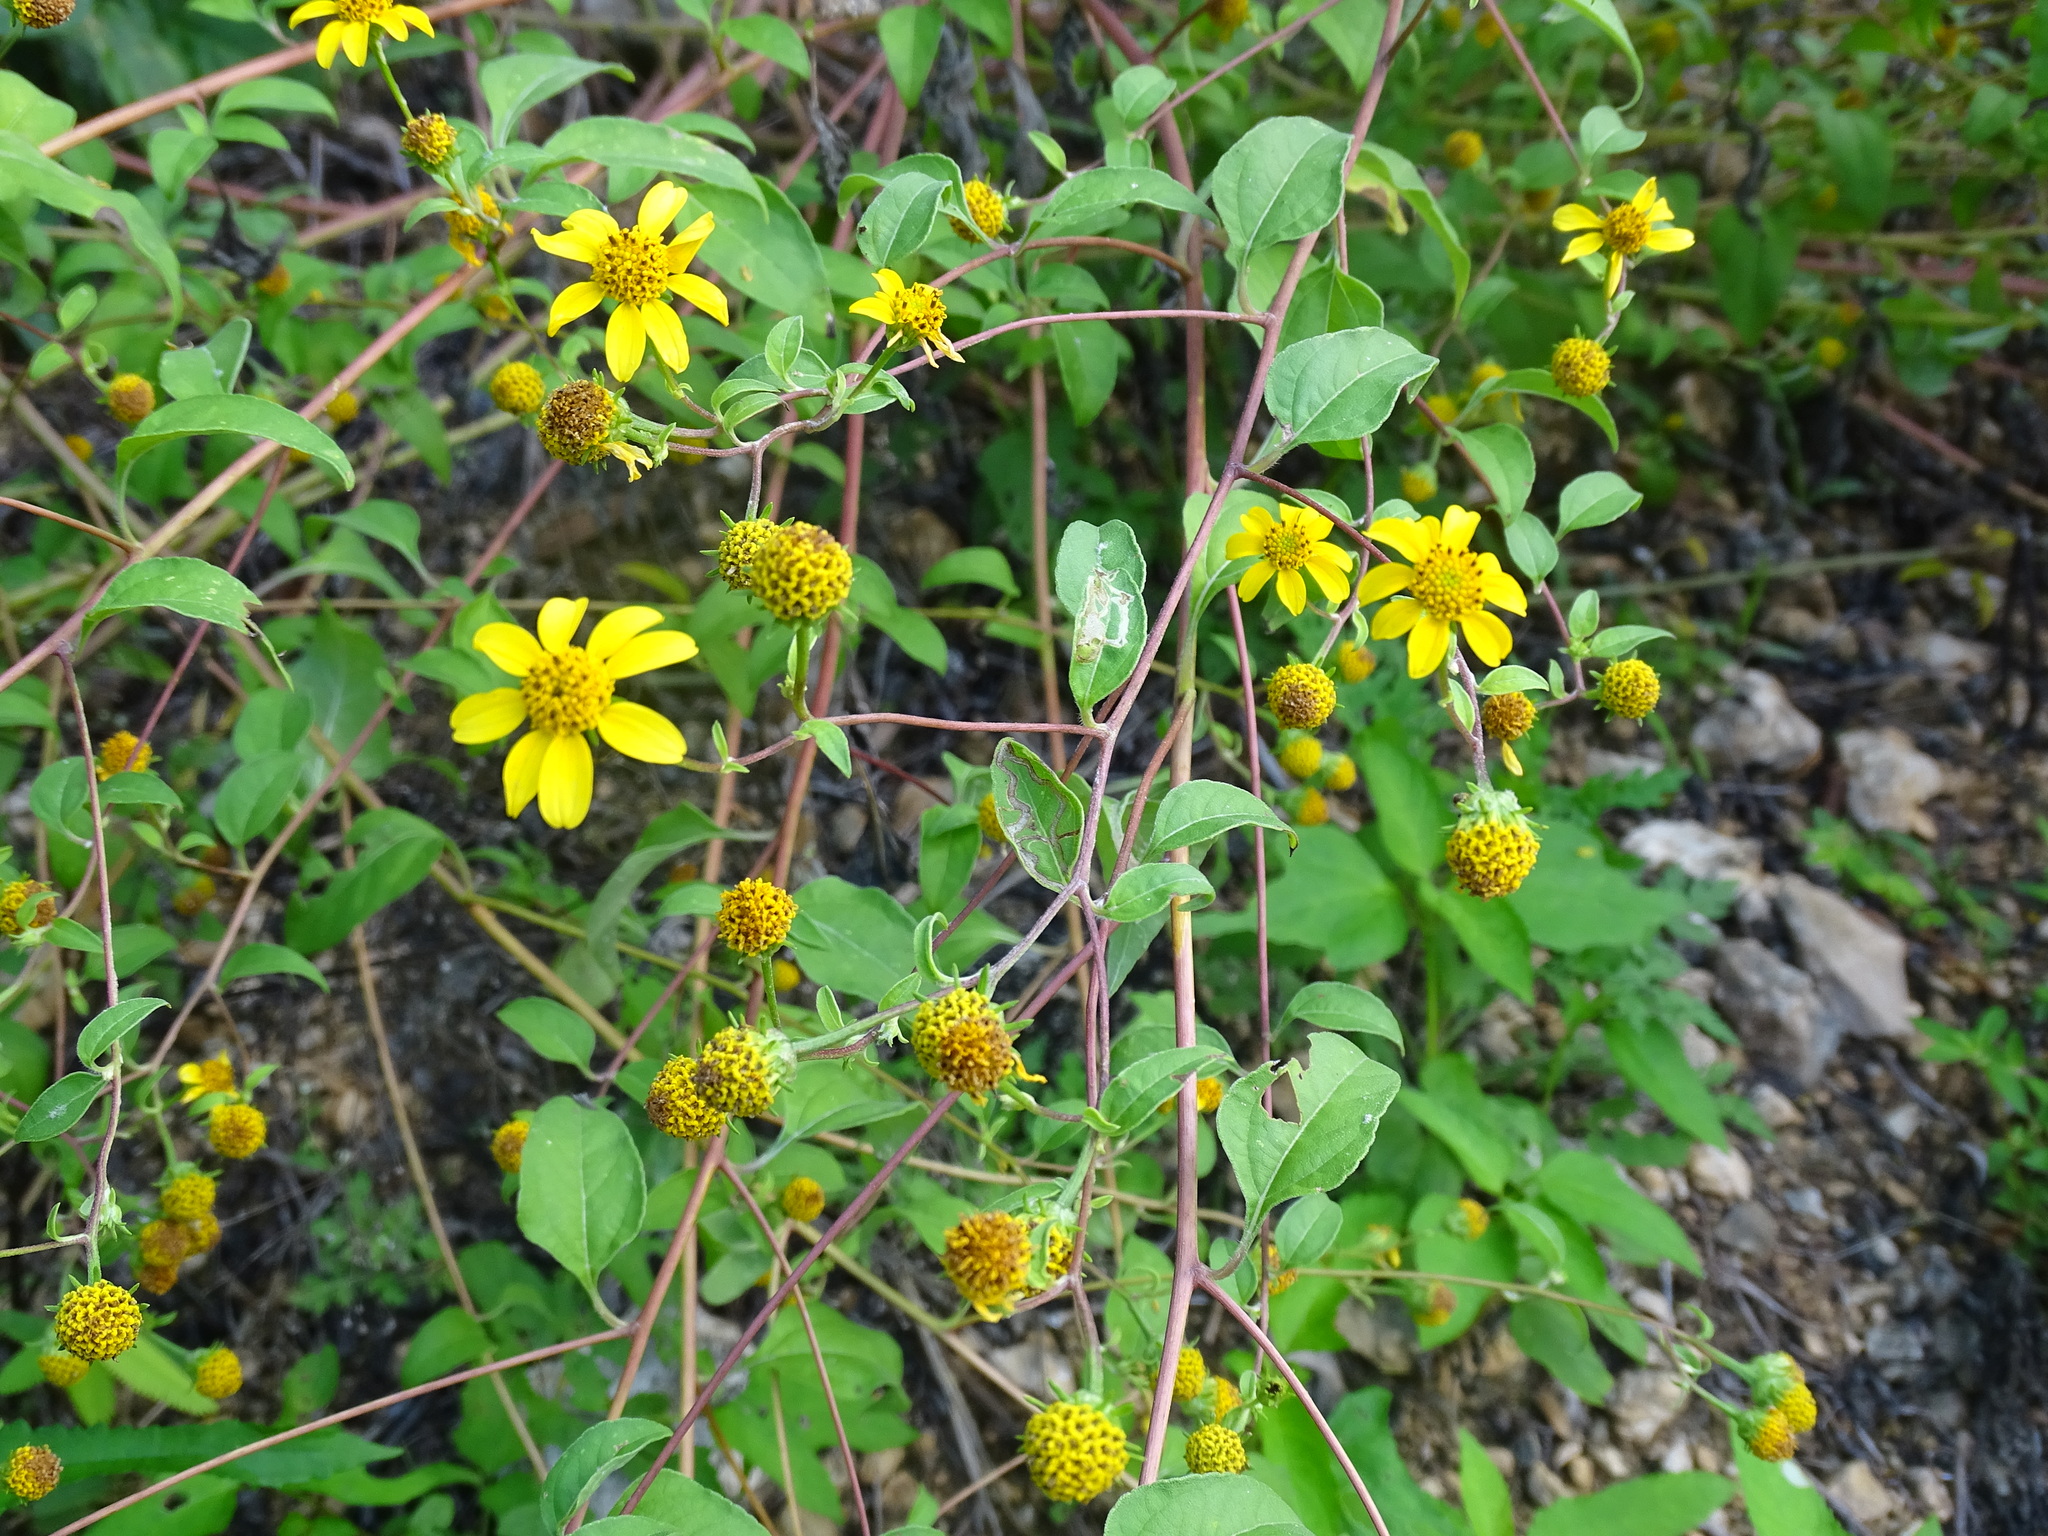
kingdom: Plantae
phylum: Tracheophyta
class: Magnoliopsida
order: Asterales
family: Asteraceae
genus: Viguiera
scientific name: Viguiera dentata
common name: Toothleaf
